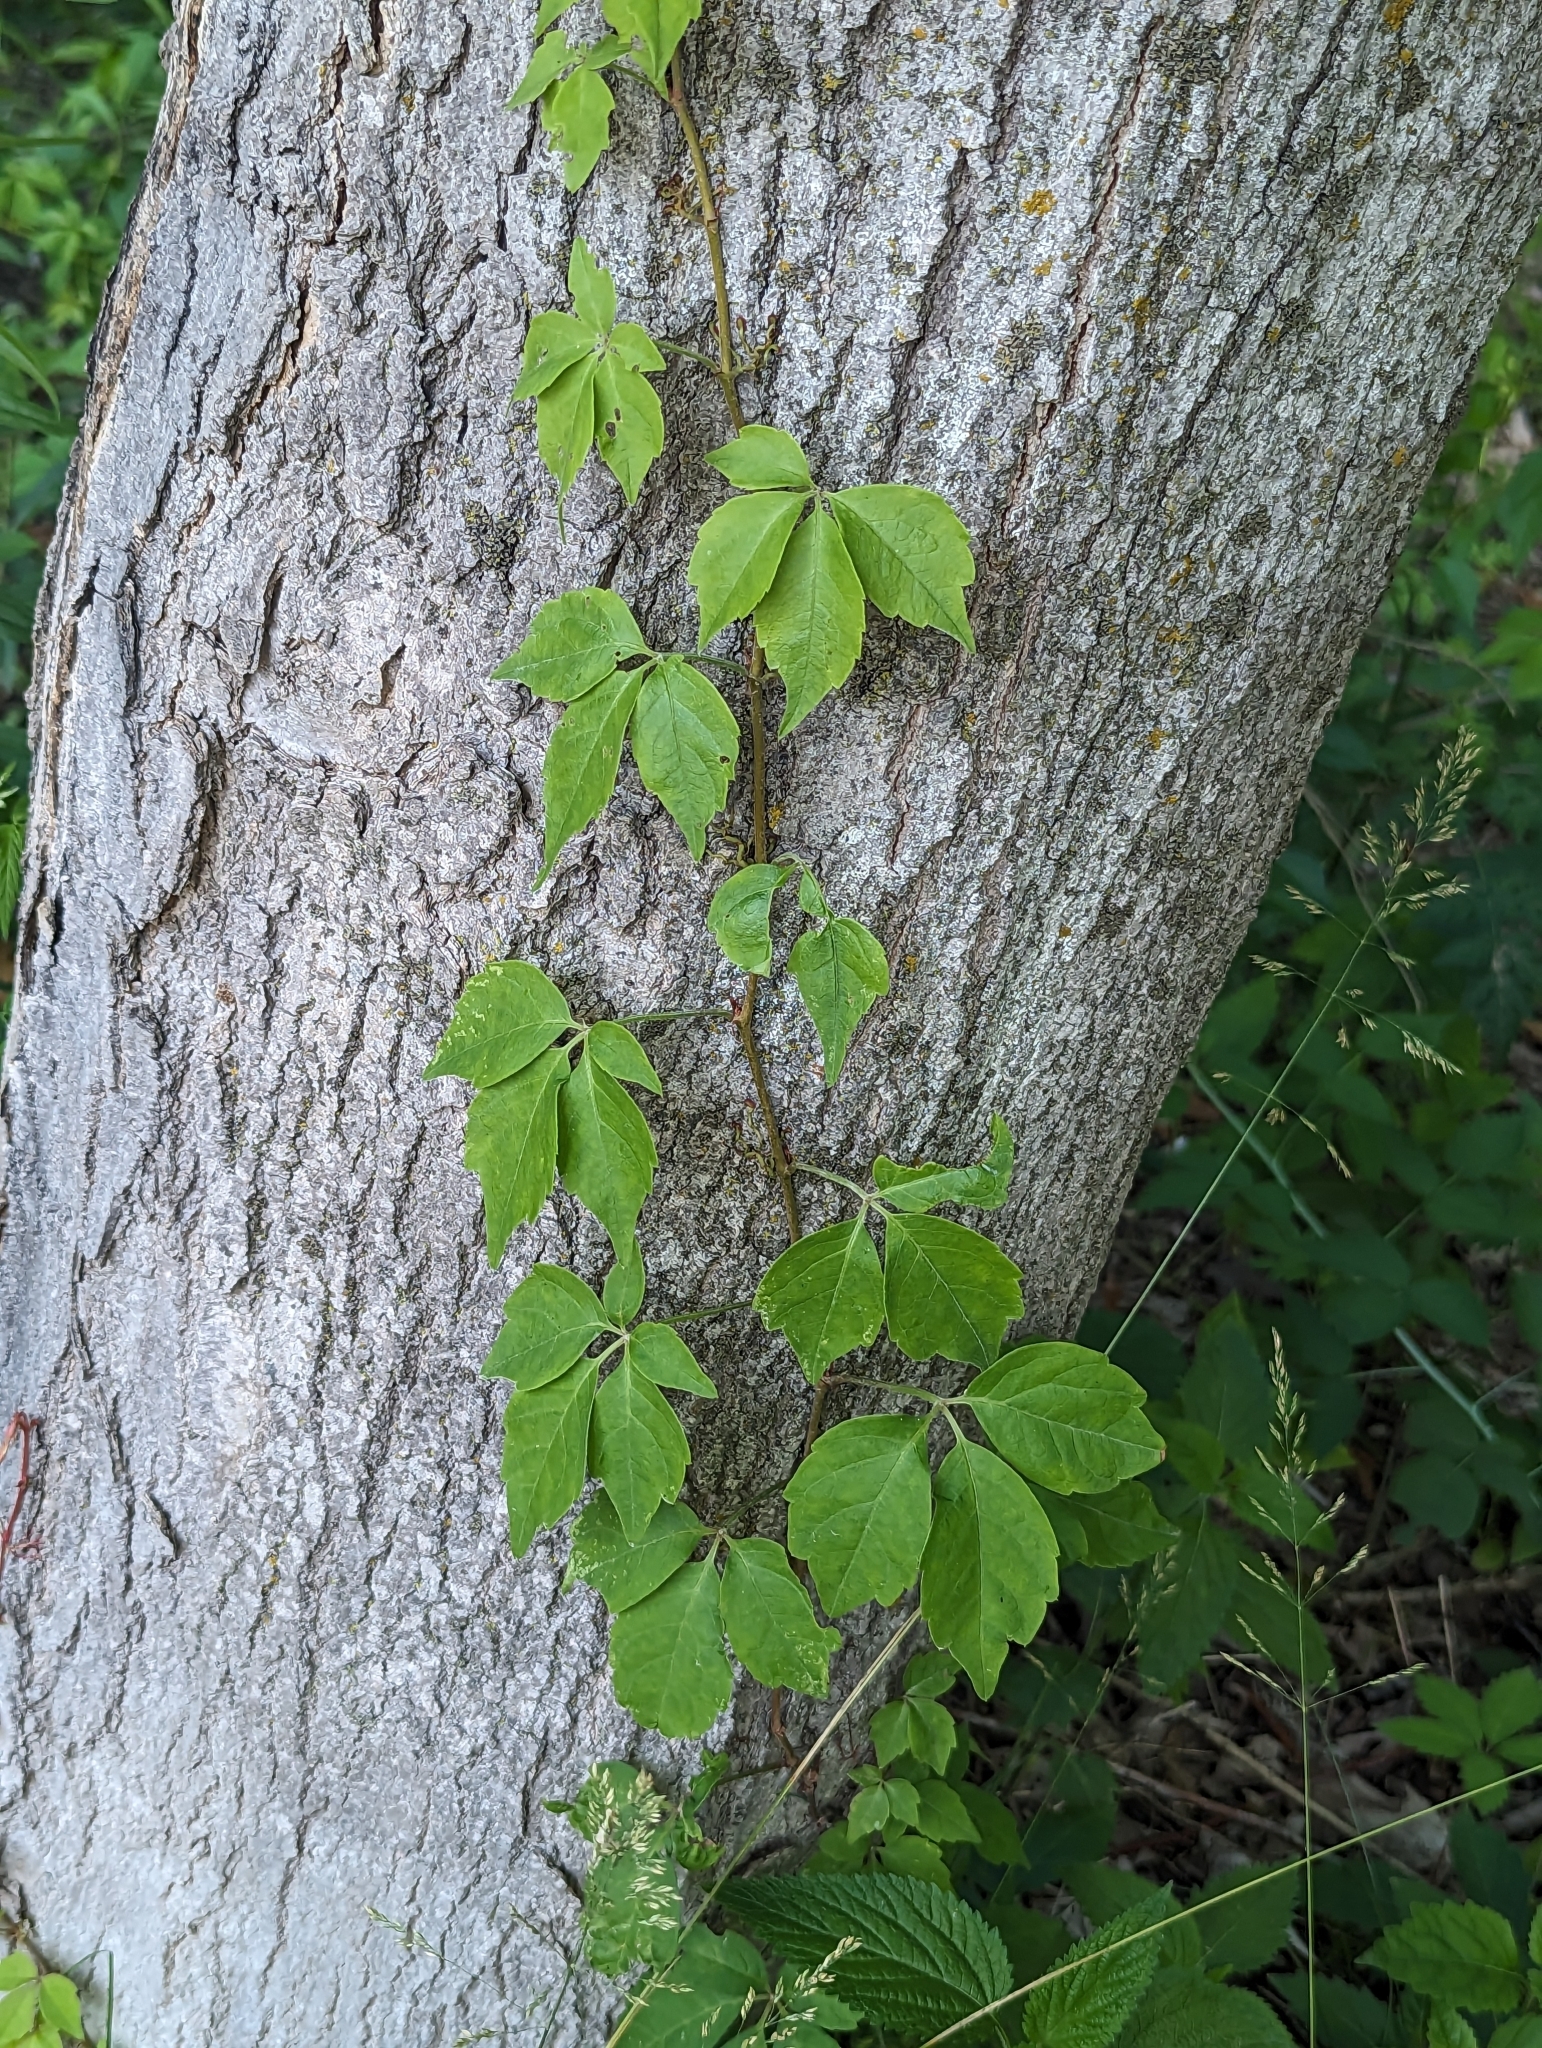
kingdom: Plantae
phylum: Tracheophyta
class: Magnoliopsida
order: Vitales
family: Vitaceae
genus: Parthenocissus
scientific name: Parthenocissus quinquefolia
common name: Virginia-creeper
